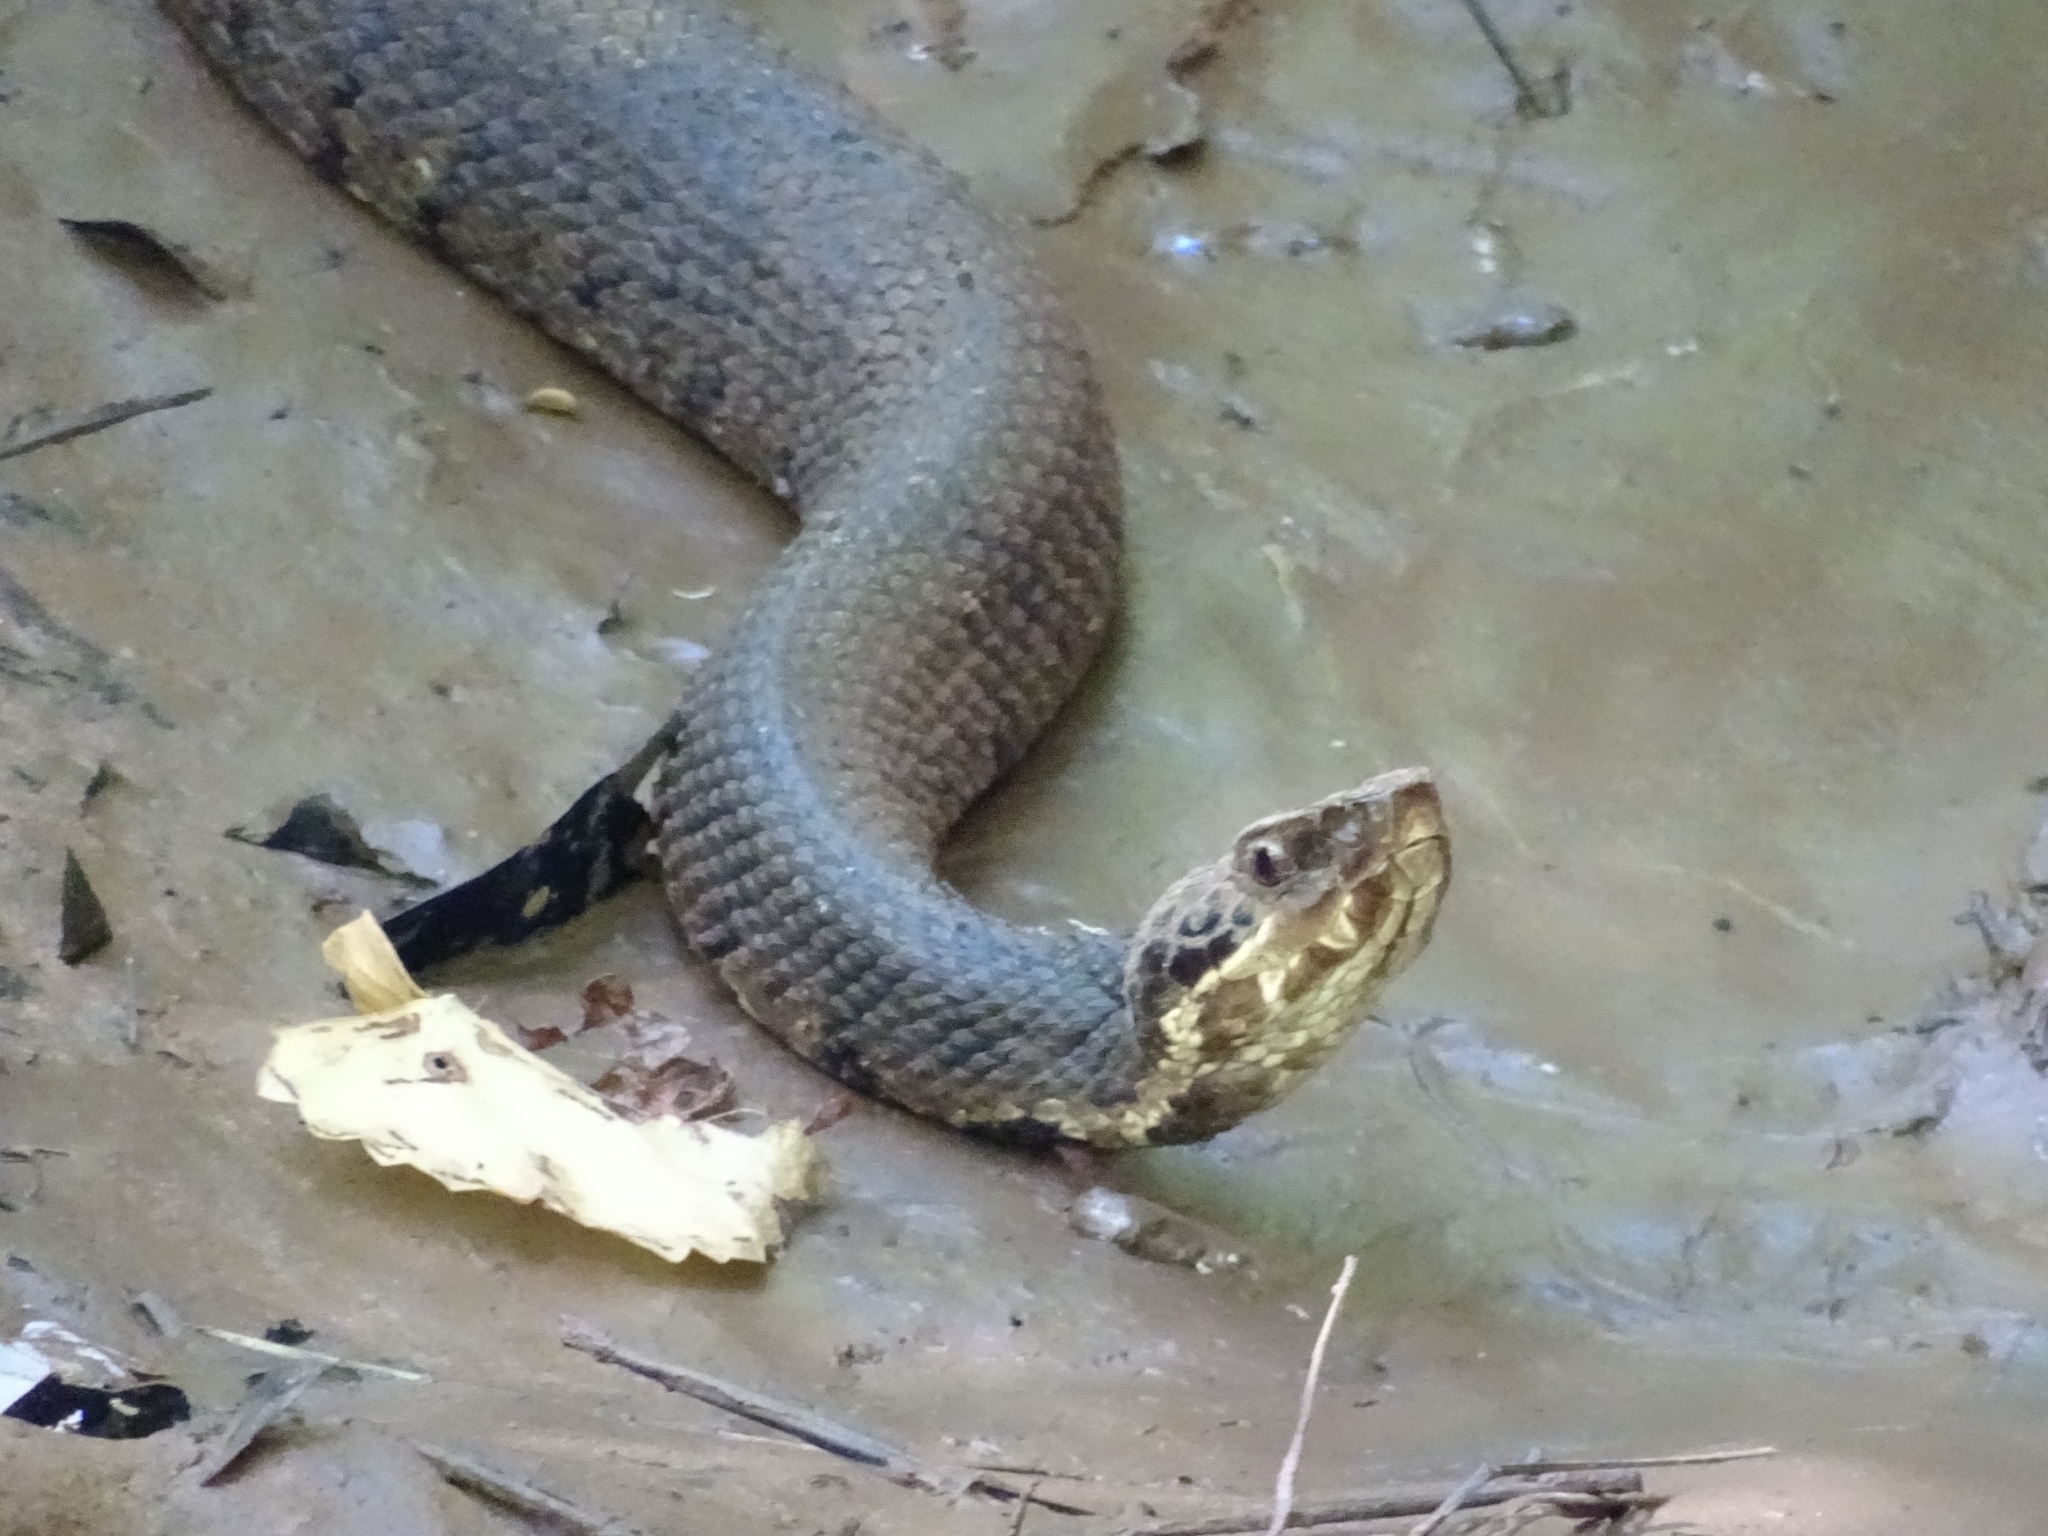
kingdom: Animalia
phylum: Chordata
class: Squamata
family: Viperidae
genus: Agkistrodon
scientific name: Agkistrodon piscivorus
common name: Cottonmouth
